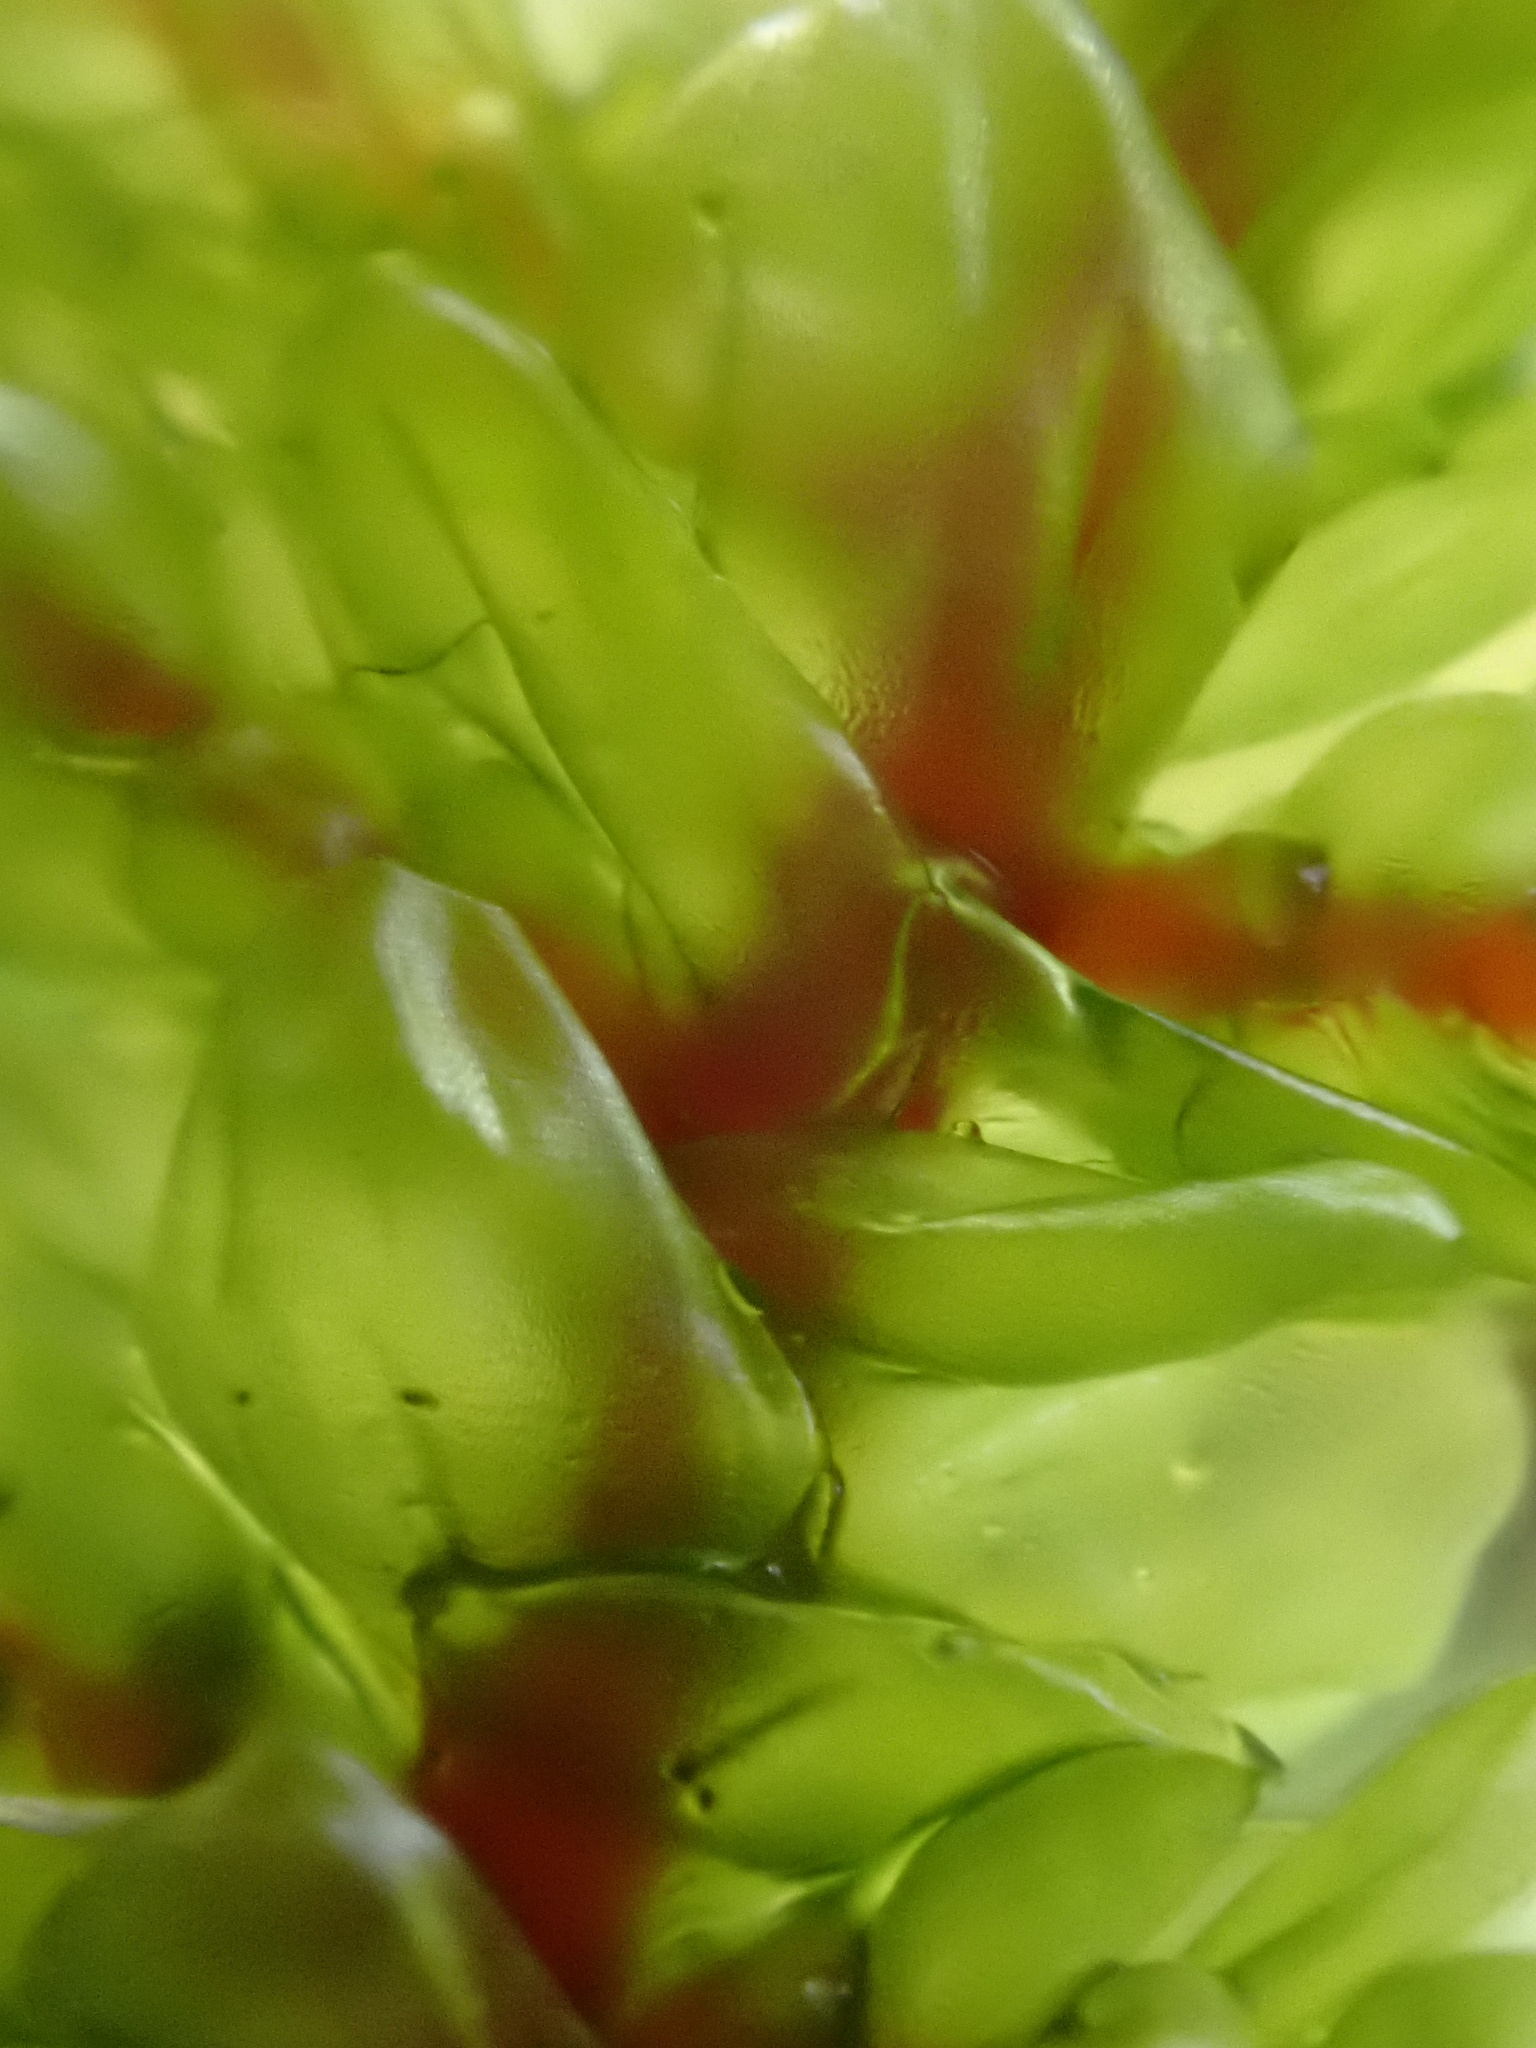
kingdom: Plantae
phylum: Bryophyta
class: Bryopsida
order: Hypnales
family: Hylocomiaceae
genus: Pleurozium
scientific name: Pleurozium schreberi
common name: Red-stemmed feather moss
